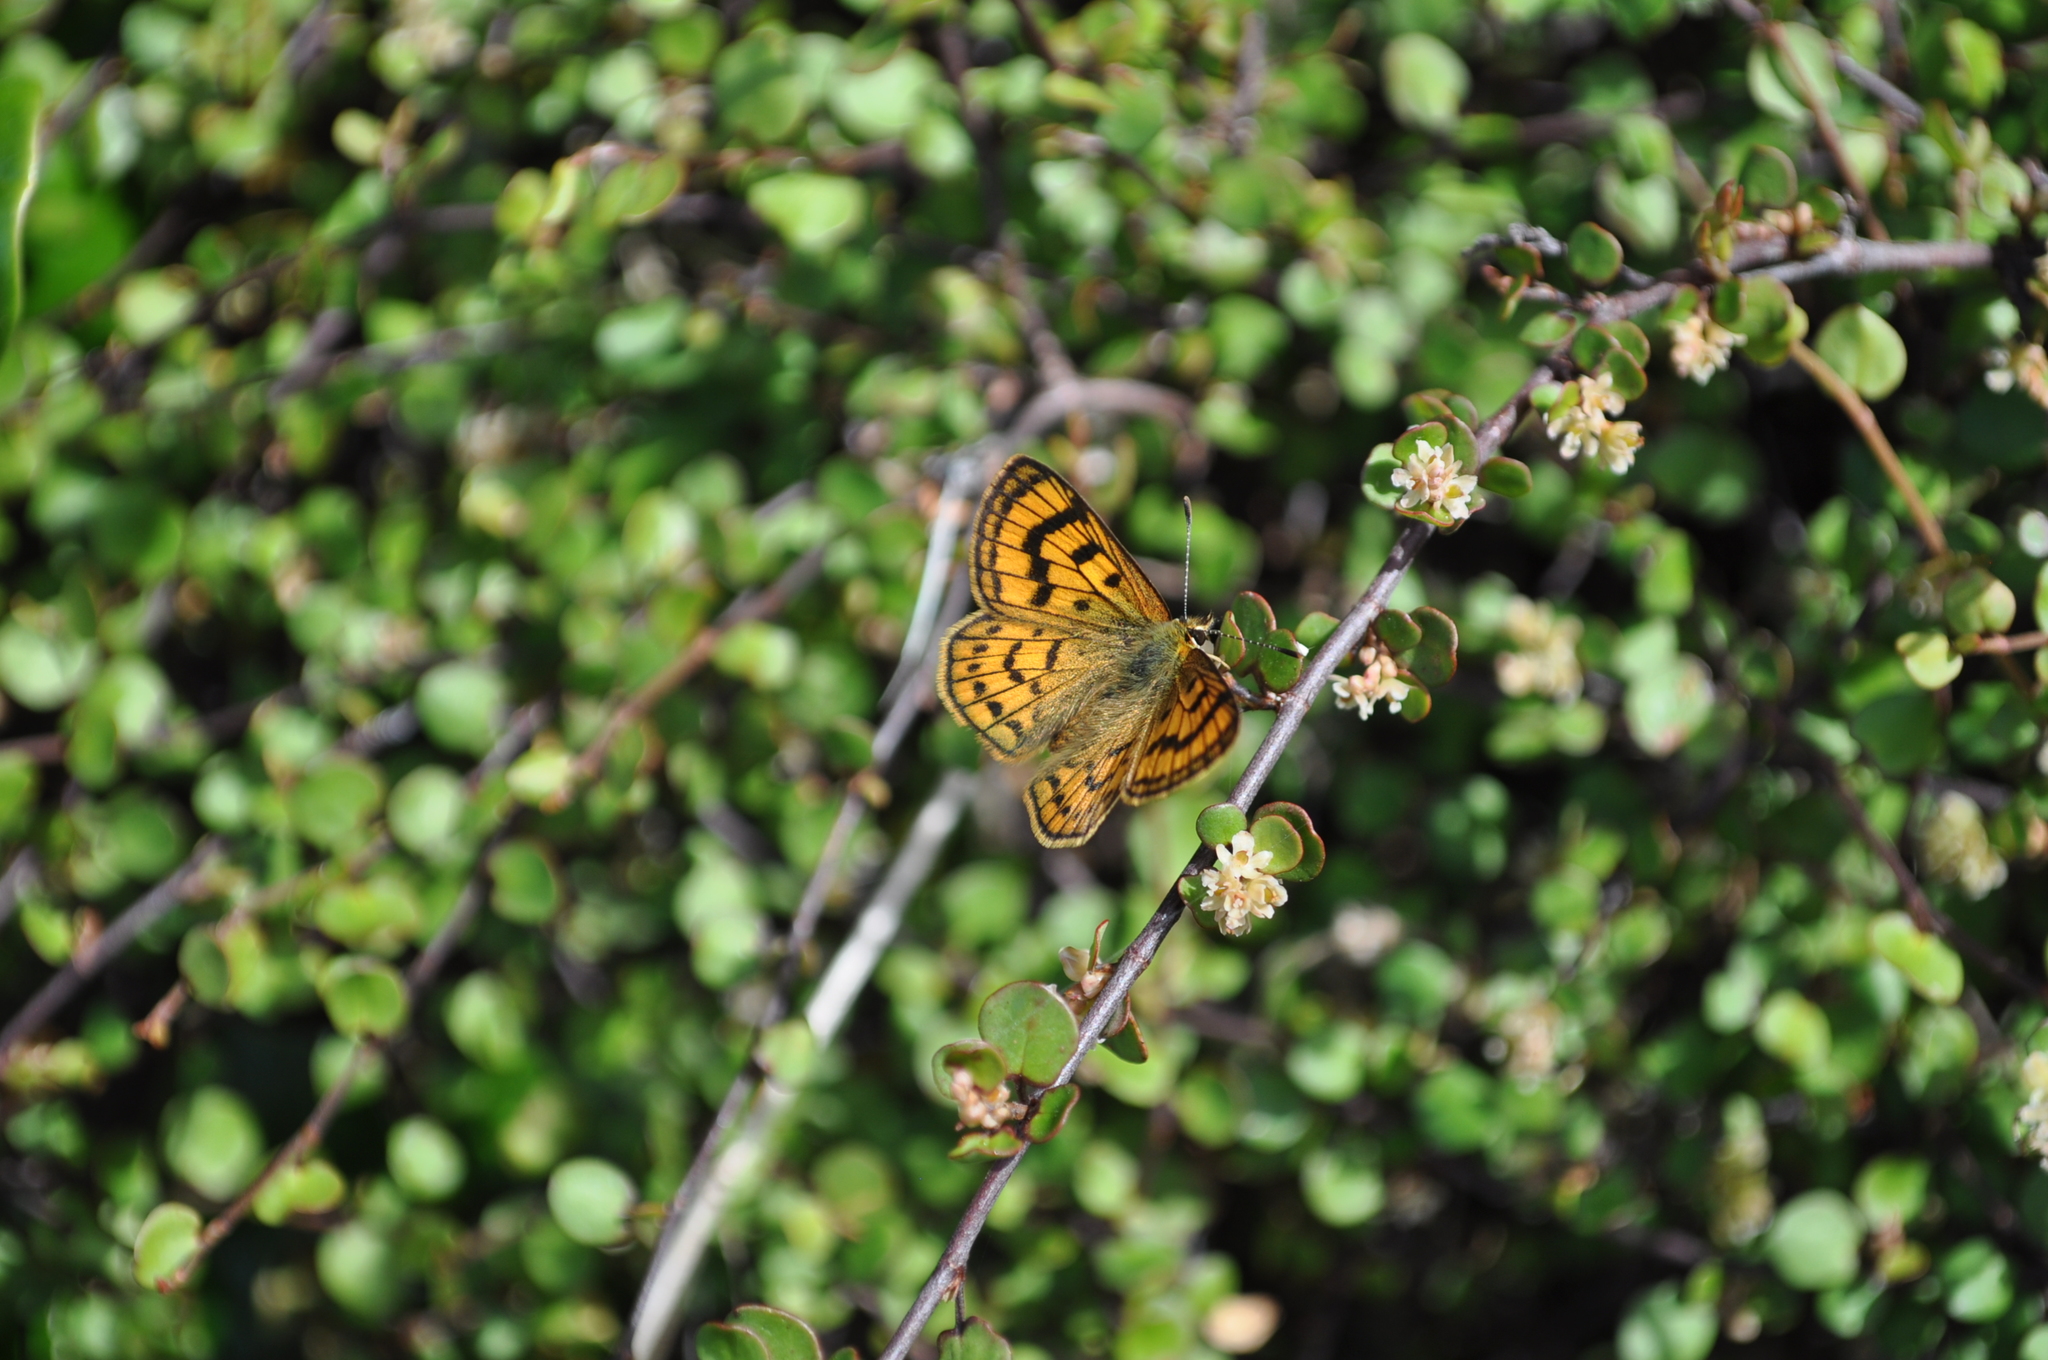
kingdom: Animalia
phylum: Arthropoda
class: Insecta
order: Lepidoptera
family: Lycaenidae
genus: Lycaena
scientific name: Lycaena salustius
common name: North island coastal copper
